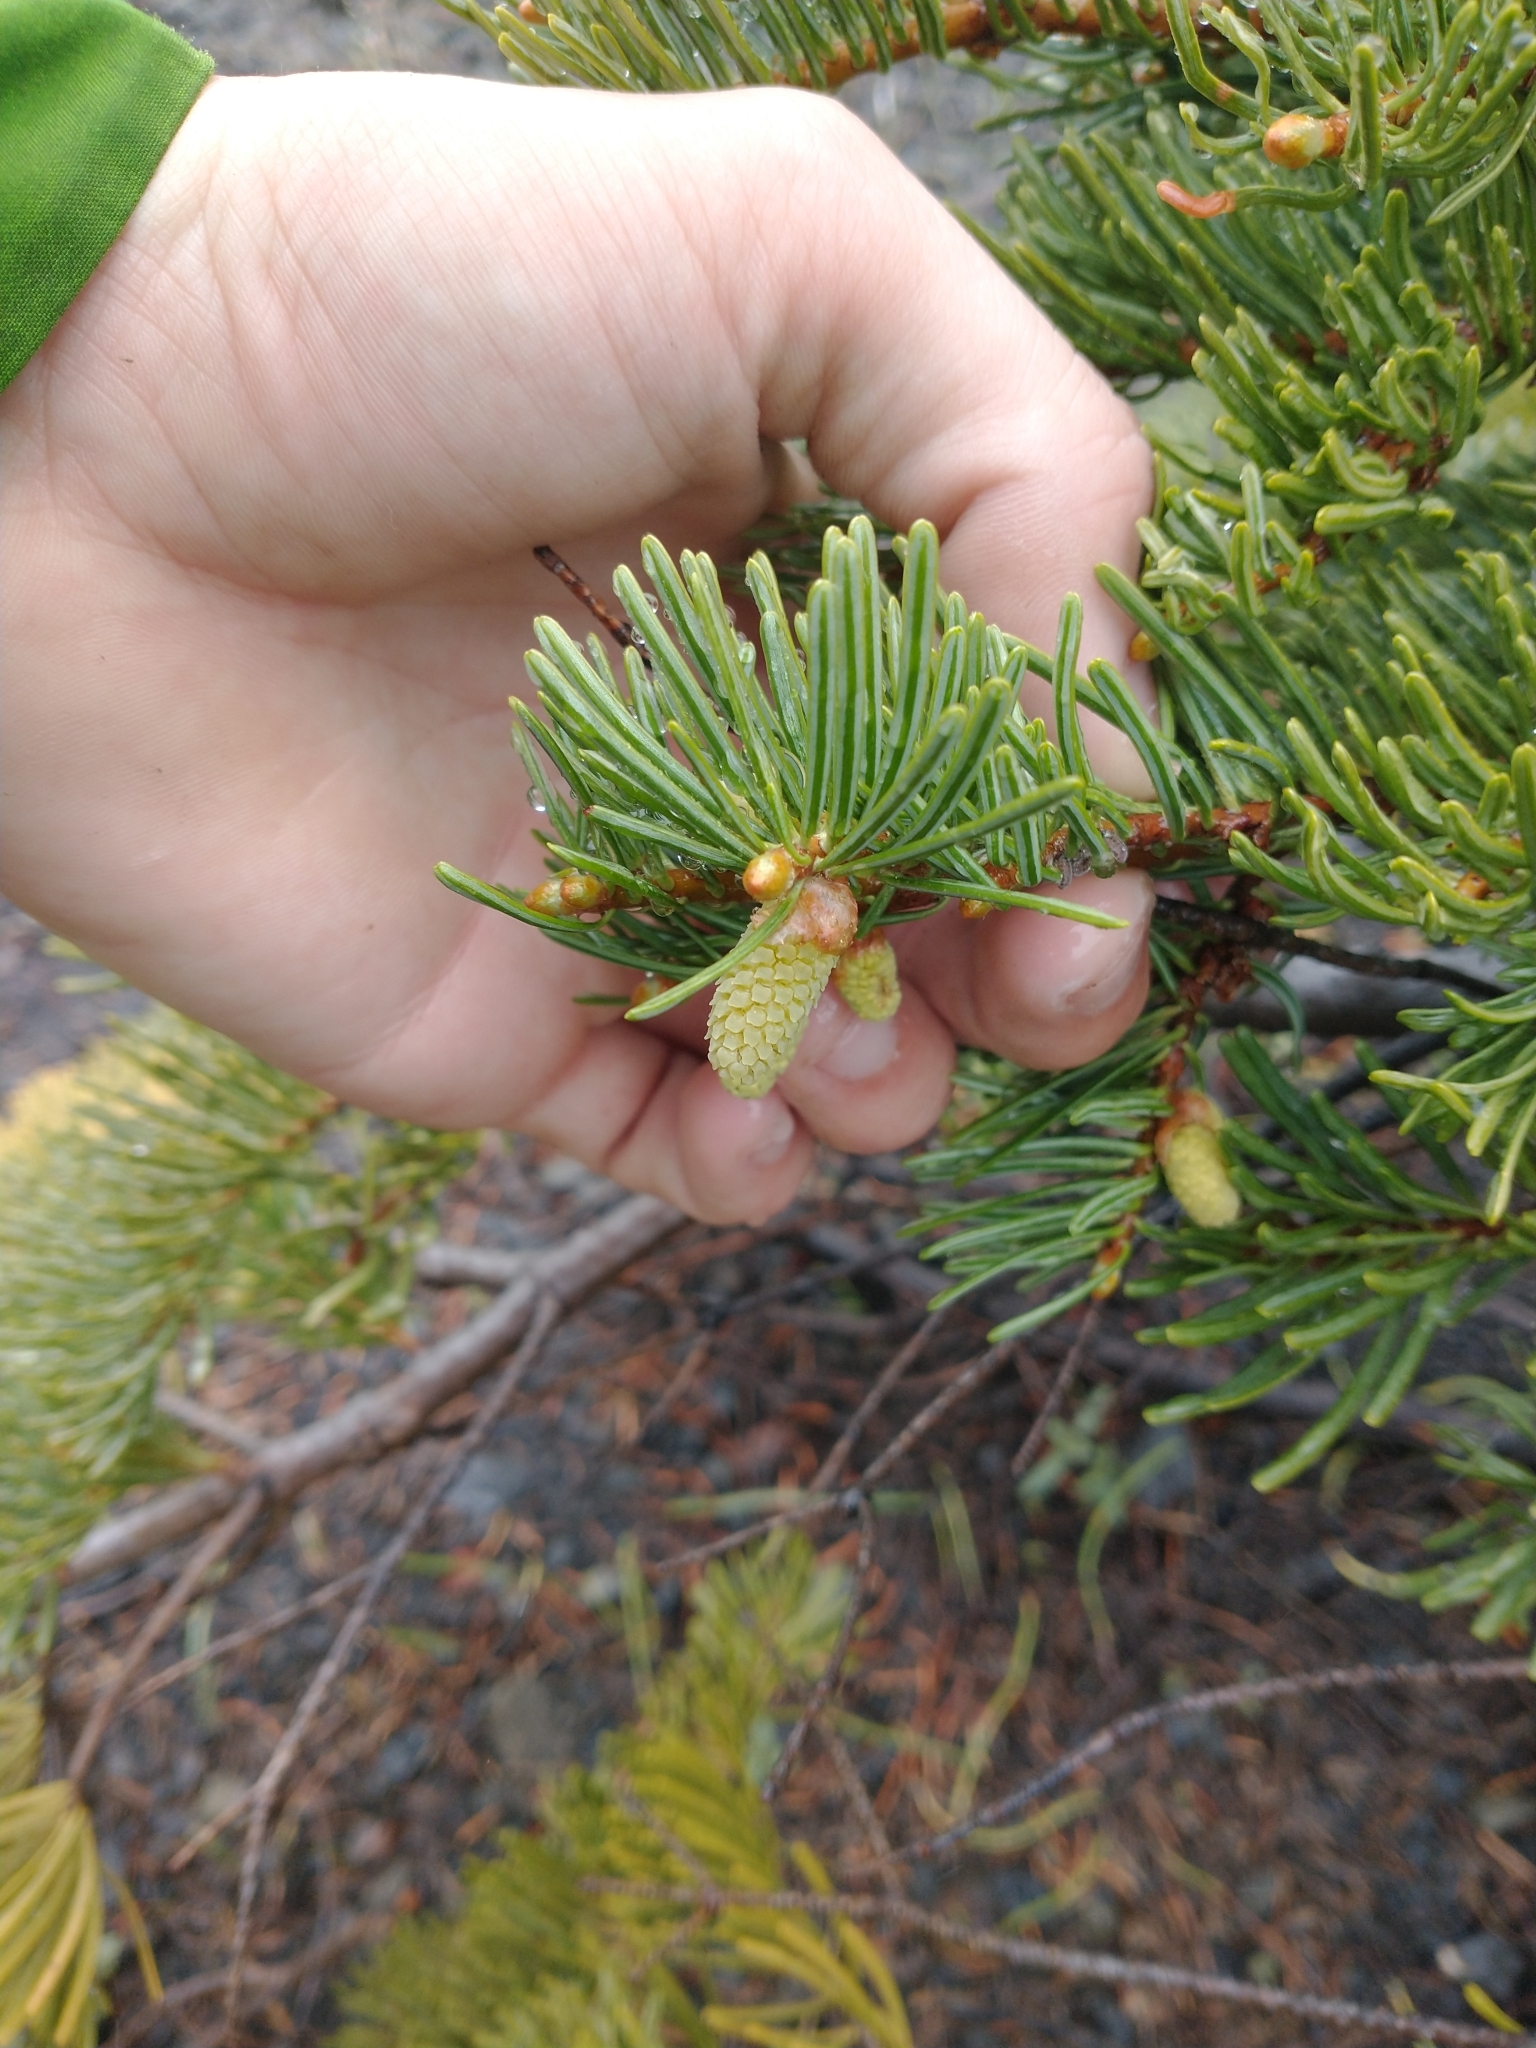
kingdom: Plantae
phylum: Tracheophyta
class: Pinopsida
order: Pinales
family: Pinaceae
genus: Abies
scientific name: Abies concolor
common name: Colorado fir
